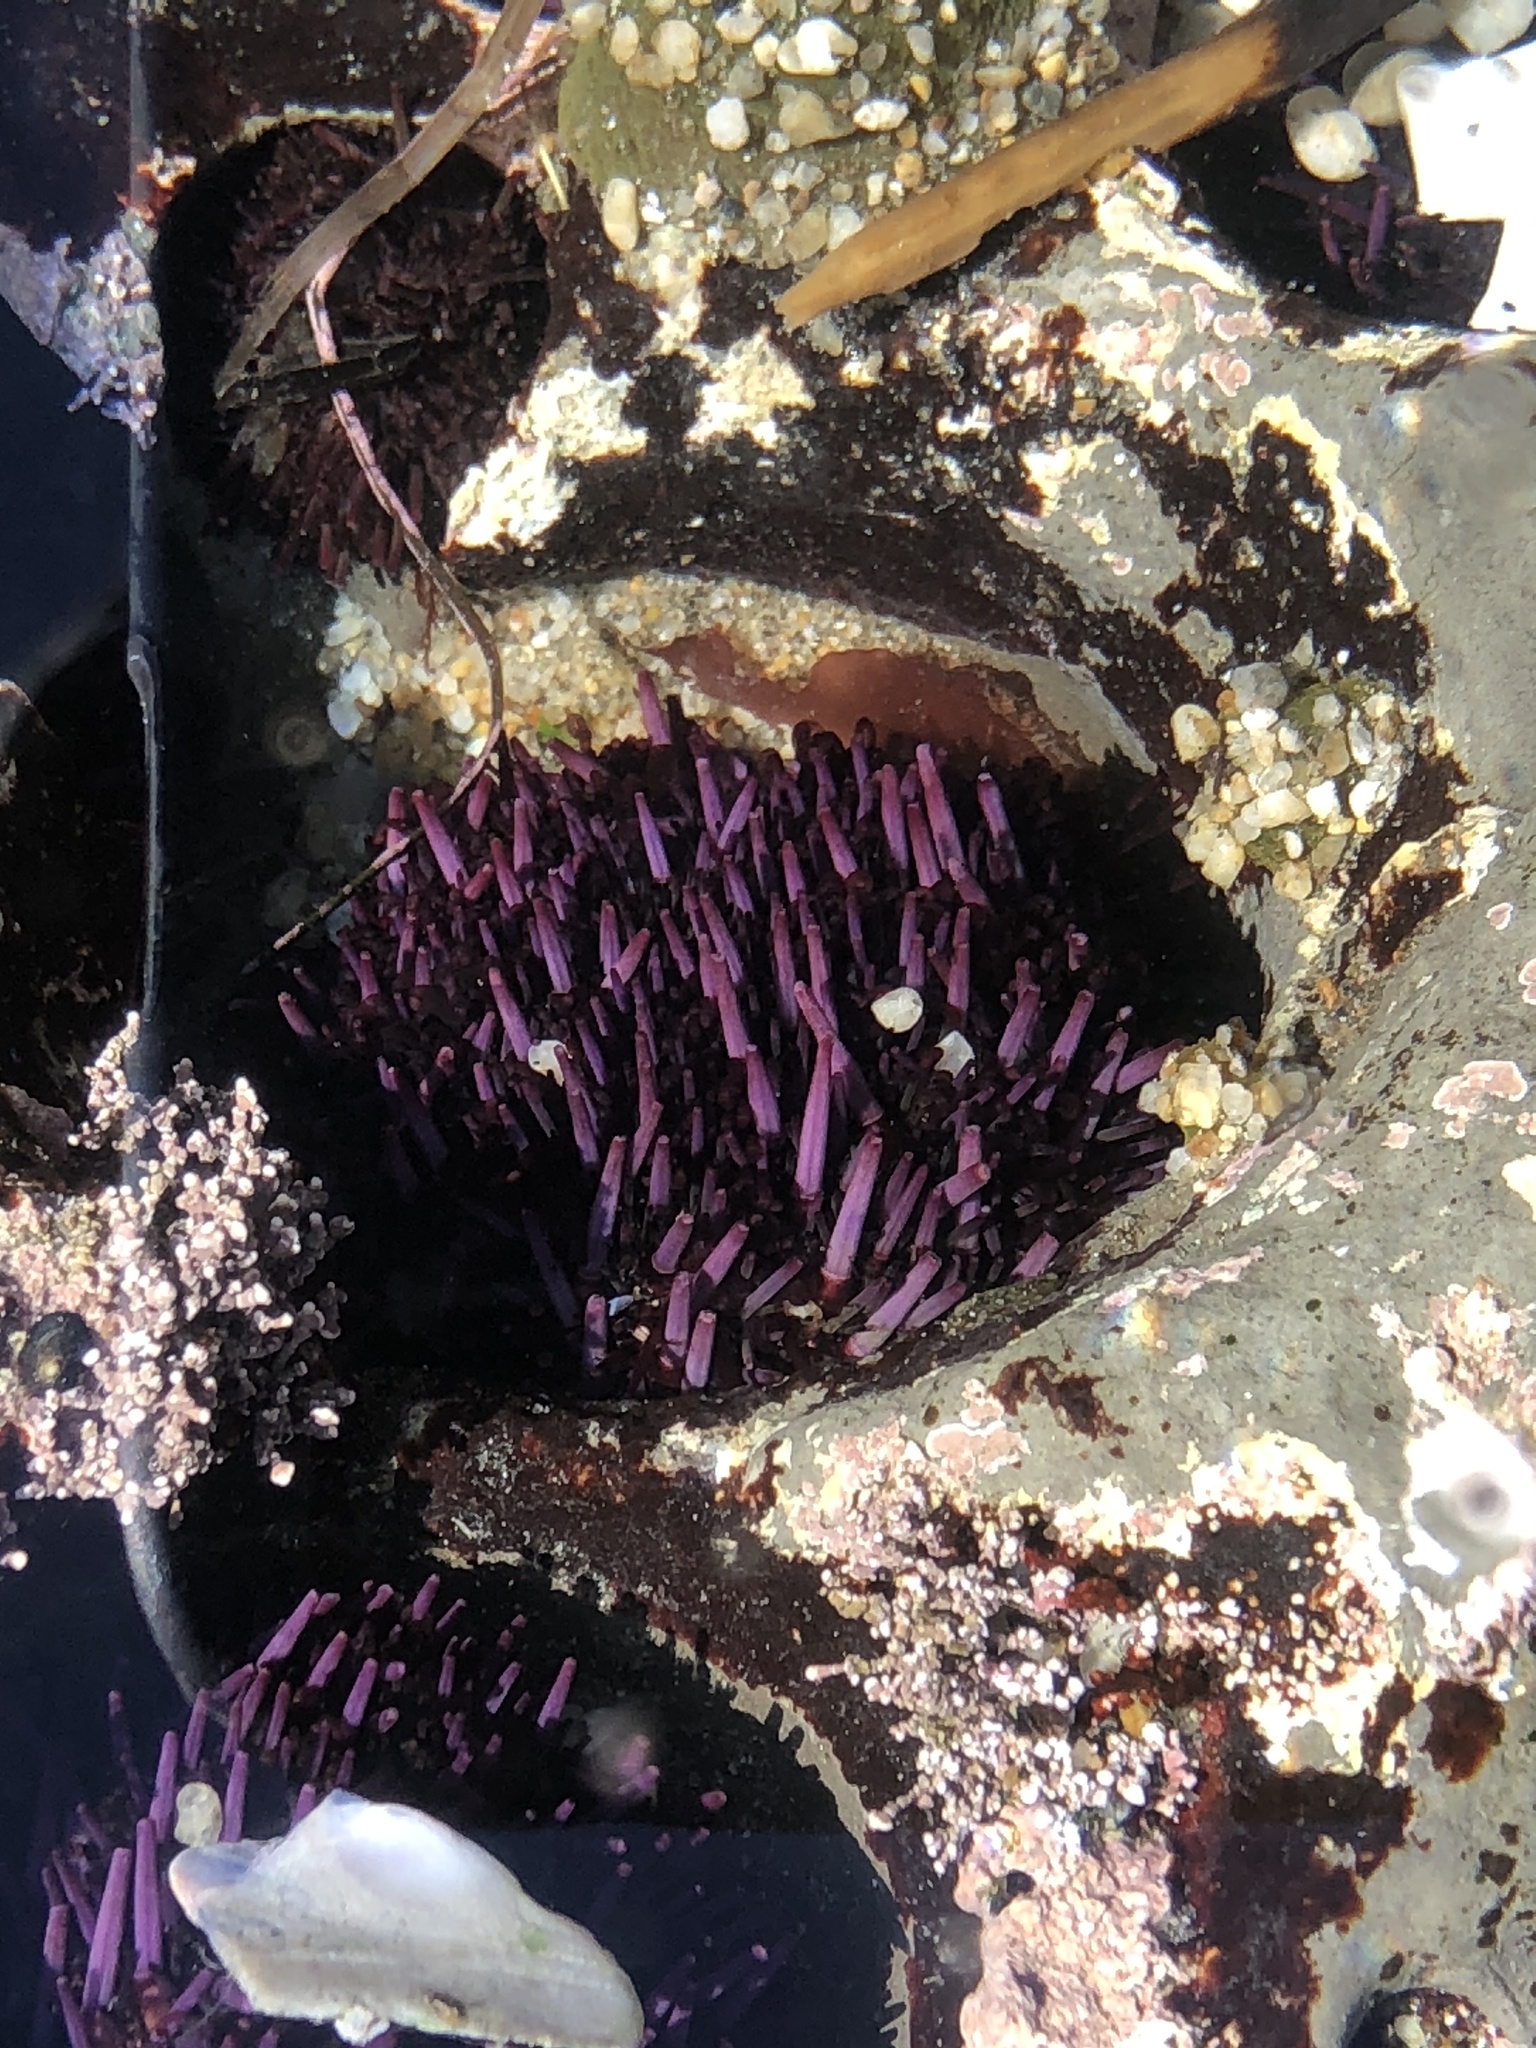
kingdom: Animalia
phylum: Echinodermata
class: Echinoidea
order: Camarodonta
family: Strongylocentrotidae
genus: Strongylocentrotus
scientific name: Strongylocentrotus purpuratus
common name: Purple sea urchin
